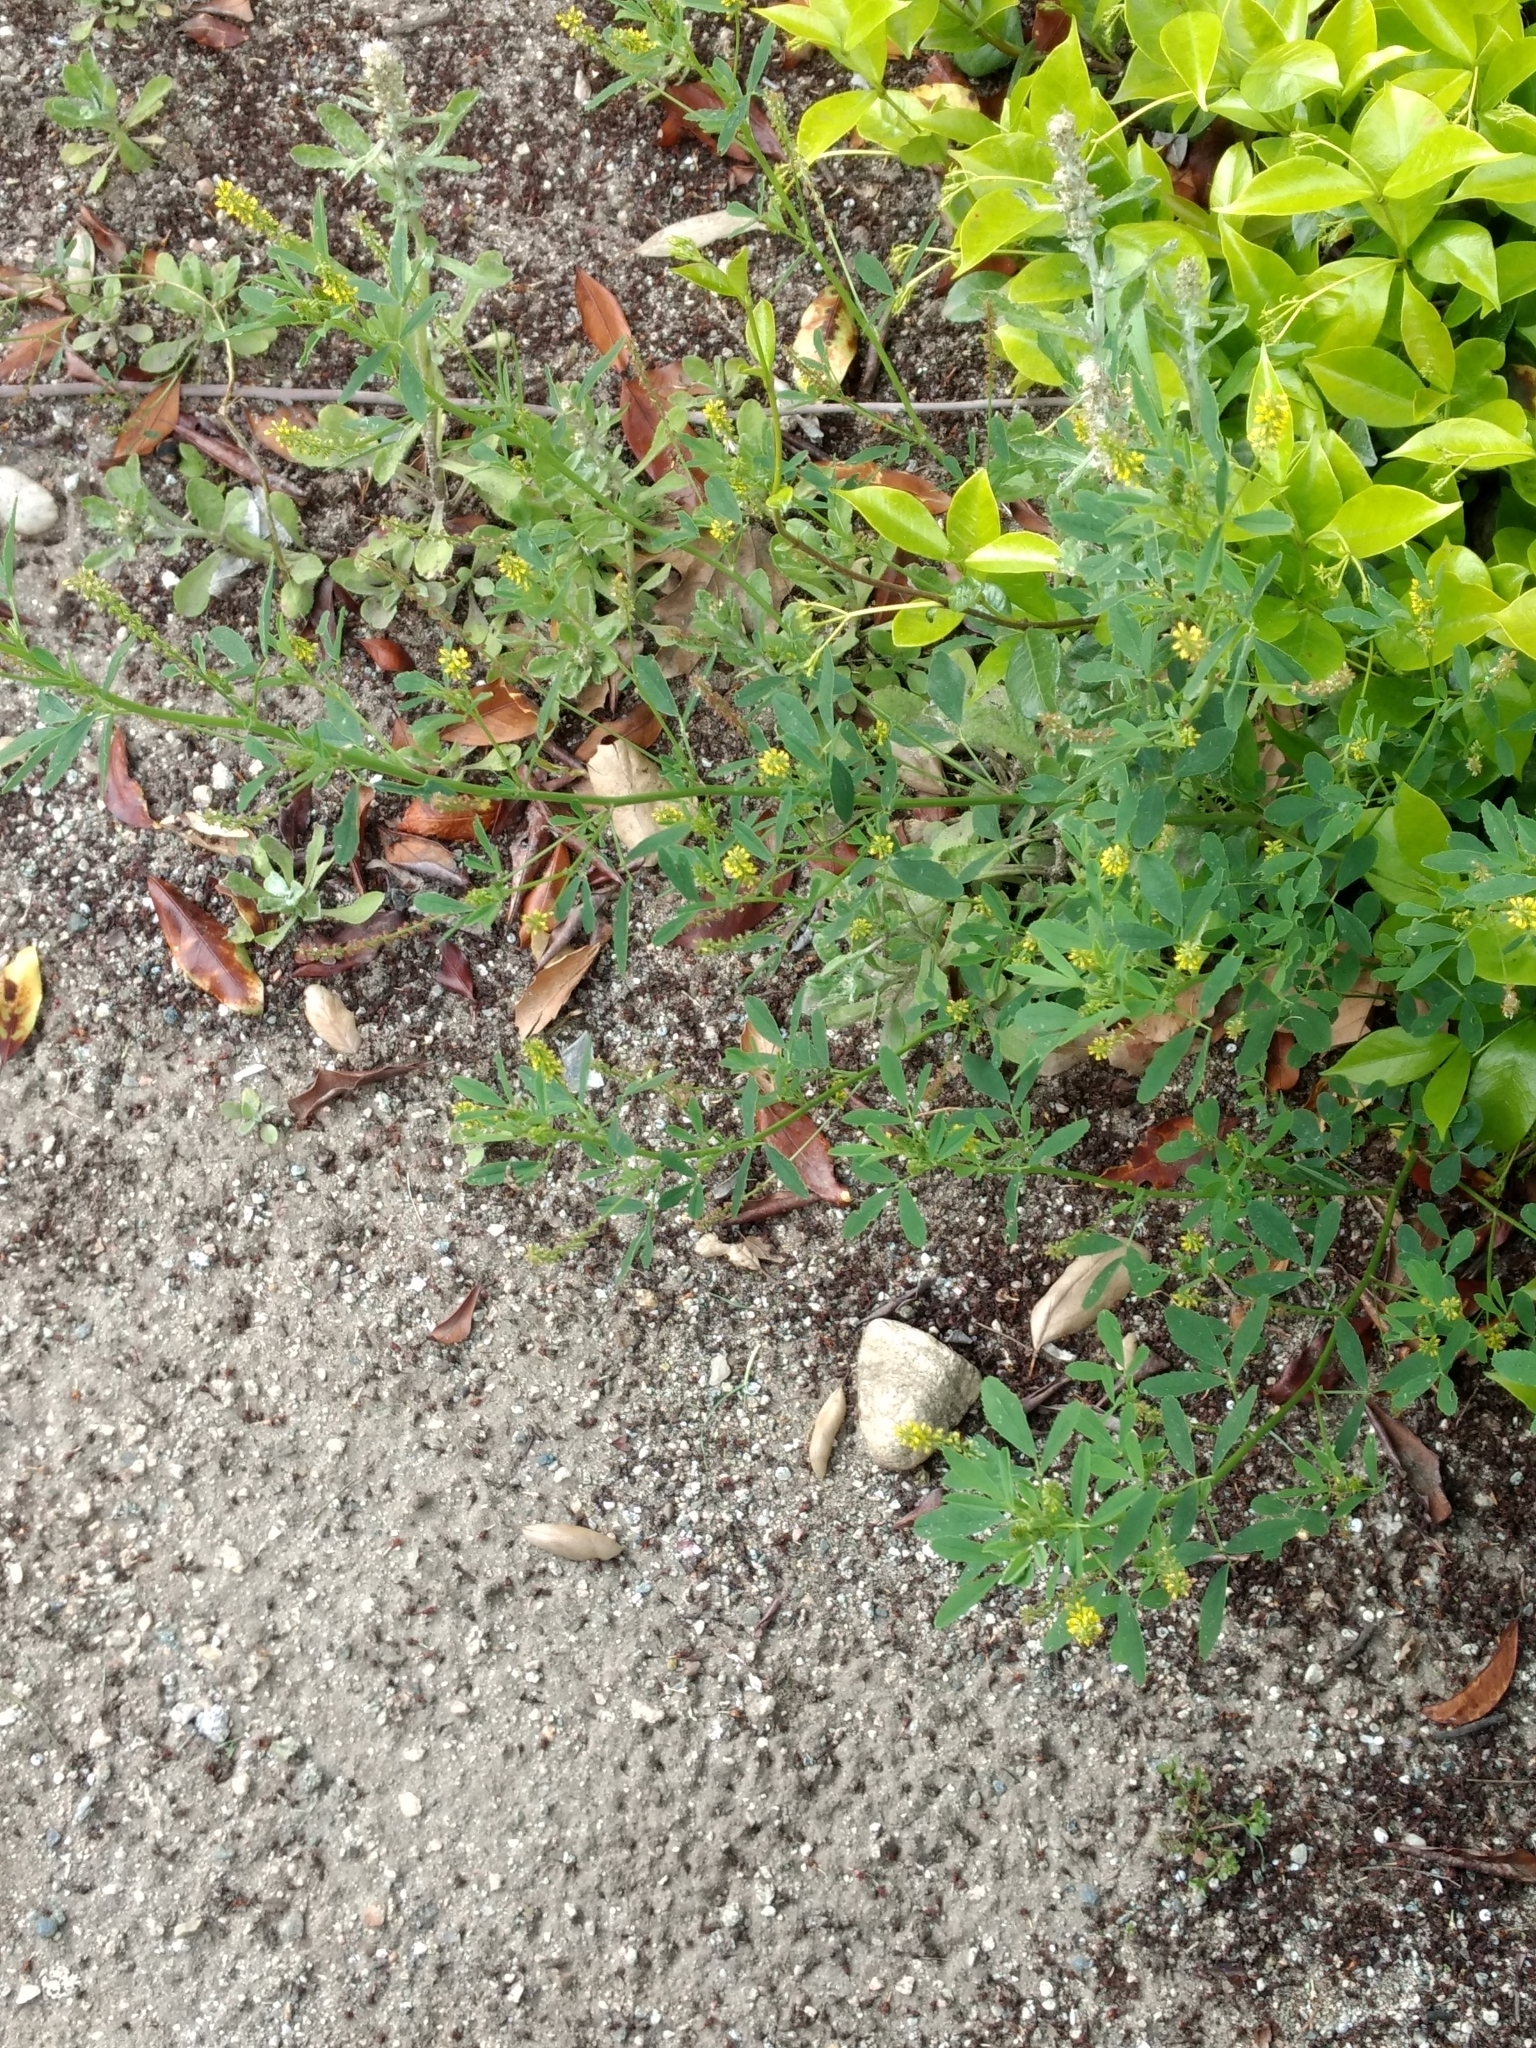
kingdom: Plantae
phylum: Tracheophyta
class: Magnoliopsida
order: Fabales
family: Fabaceae
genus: Melilotus
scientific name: Melilotus indicus
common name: Small melilot
